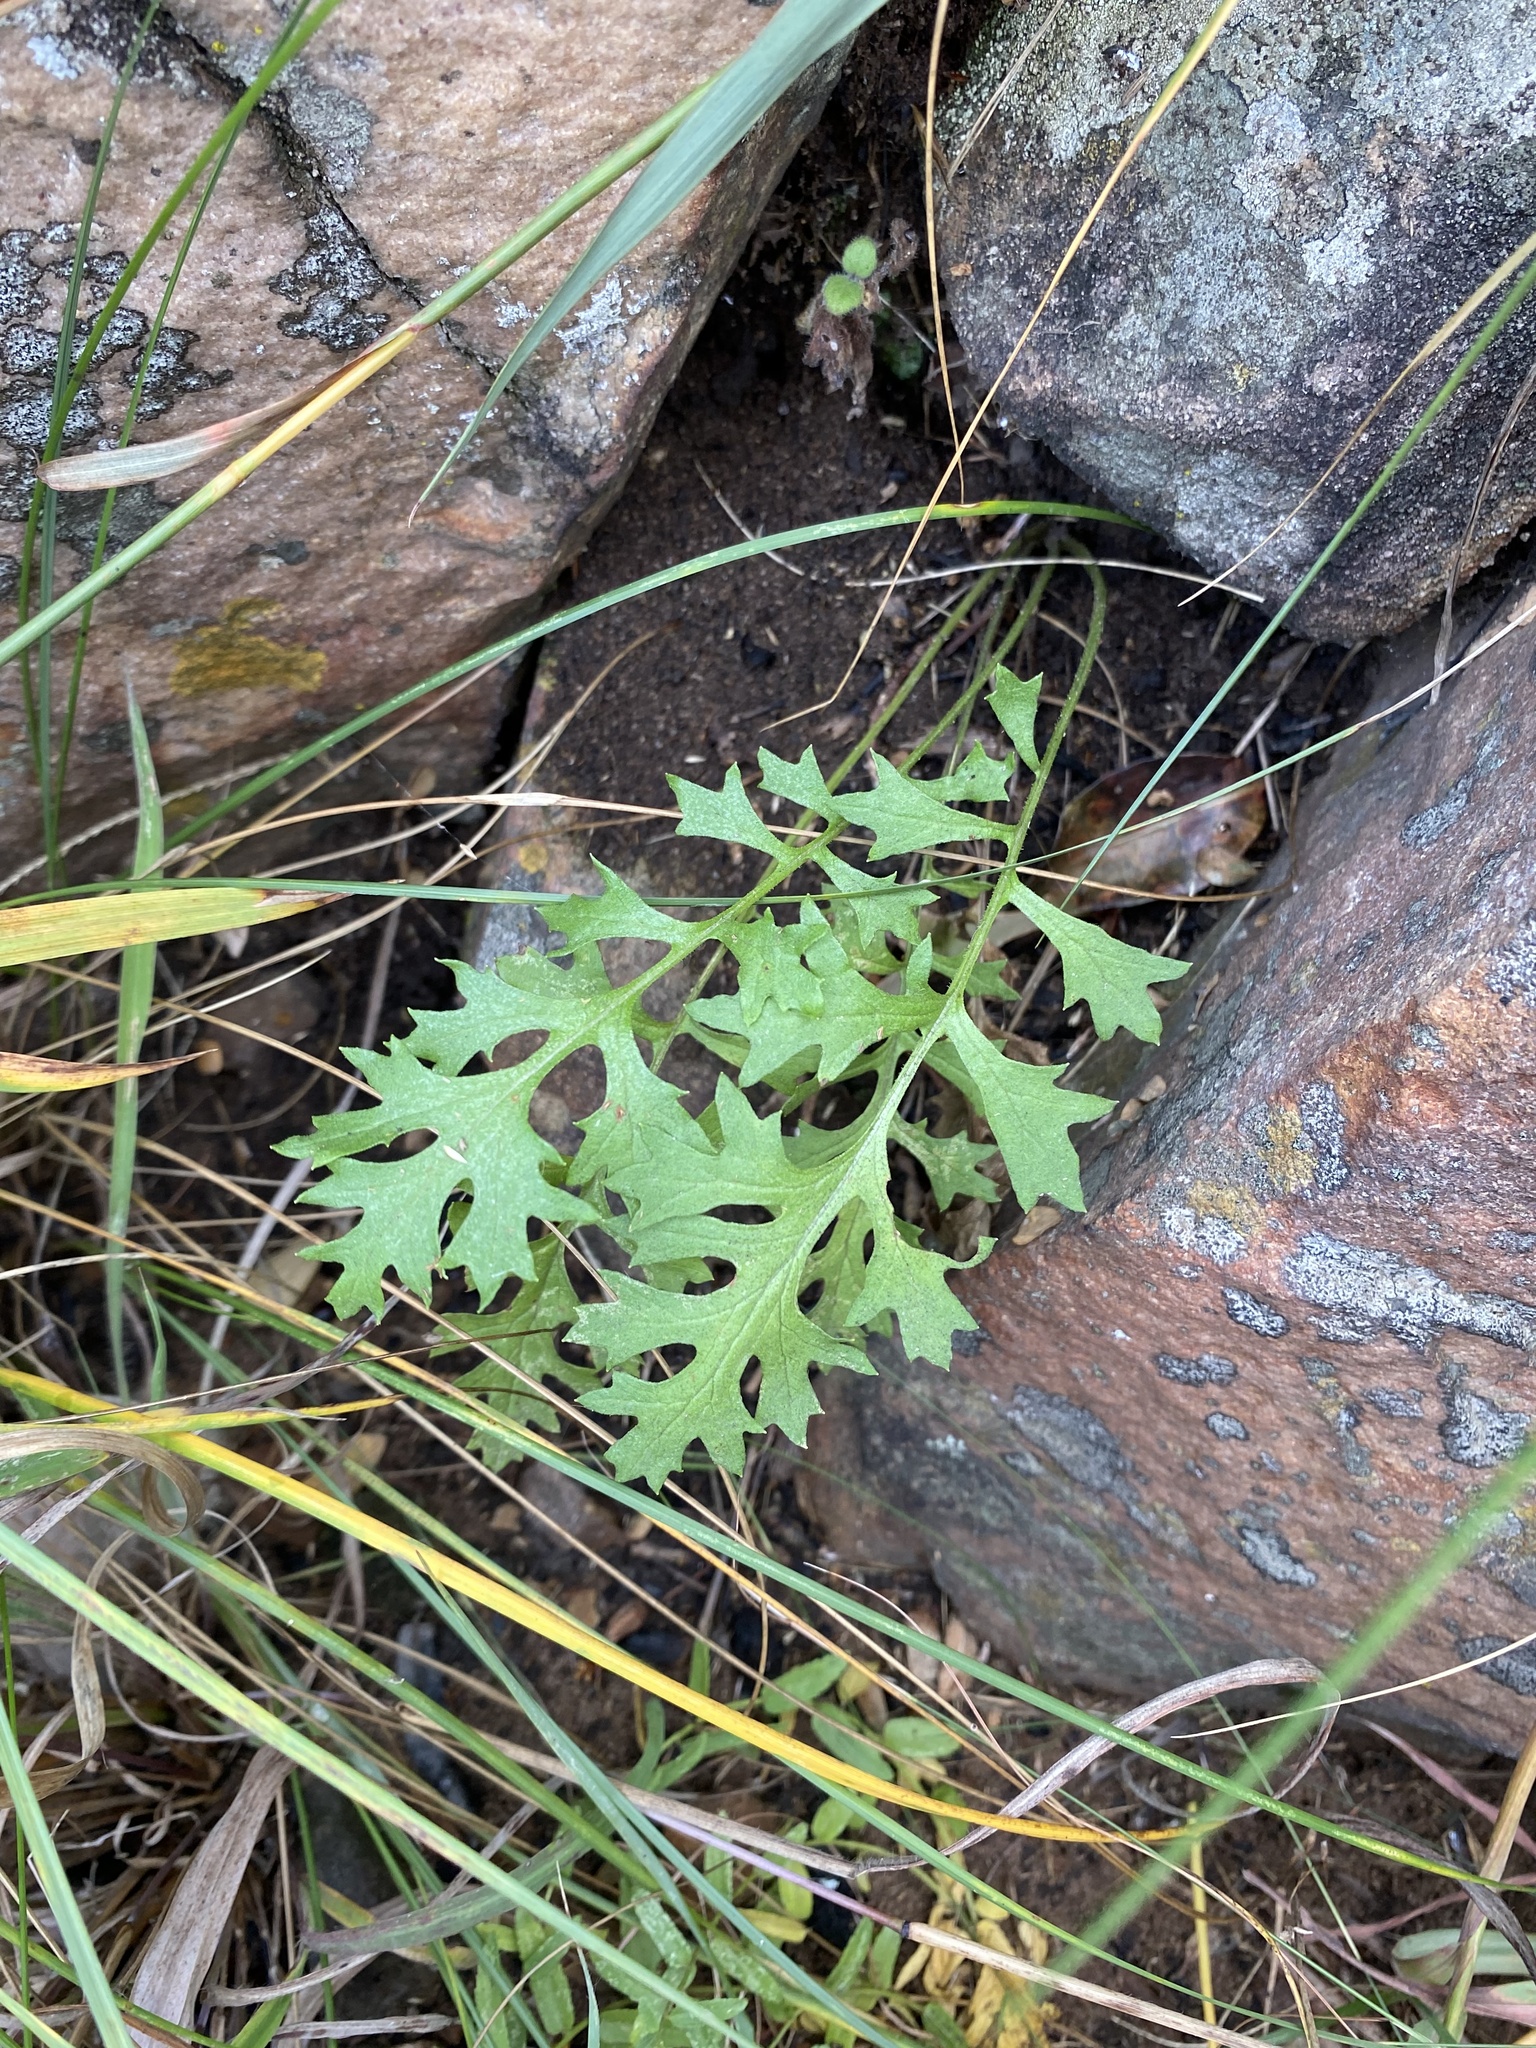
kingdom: Plantae
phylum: Tracheophyta
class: Magnoliopsida
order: Asterales
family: Asteraceae
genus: Senecio
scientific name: Senecio rhyncholaenus
